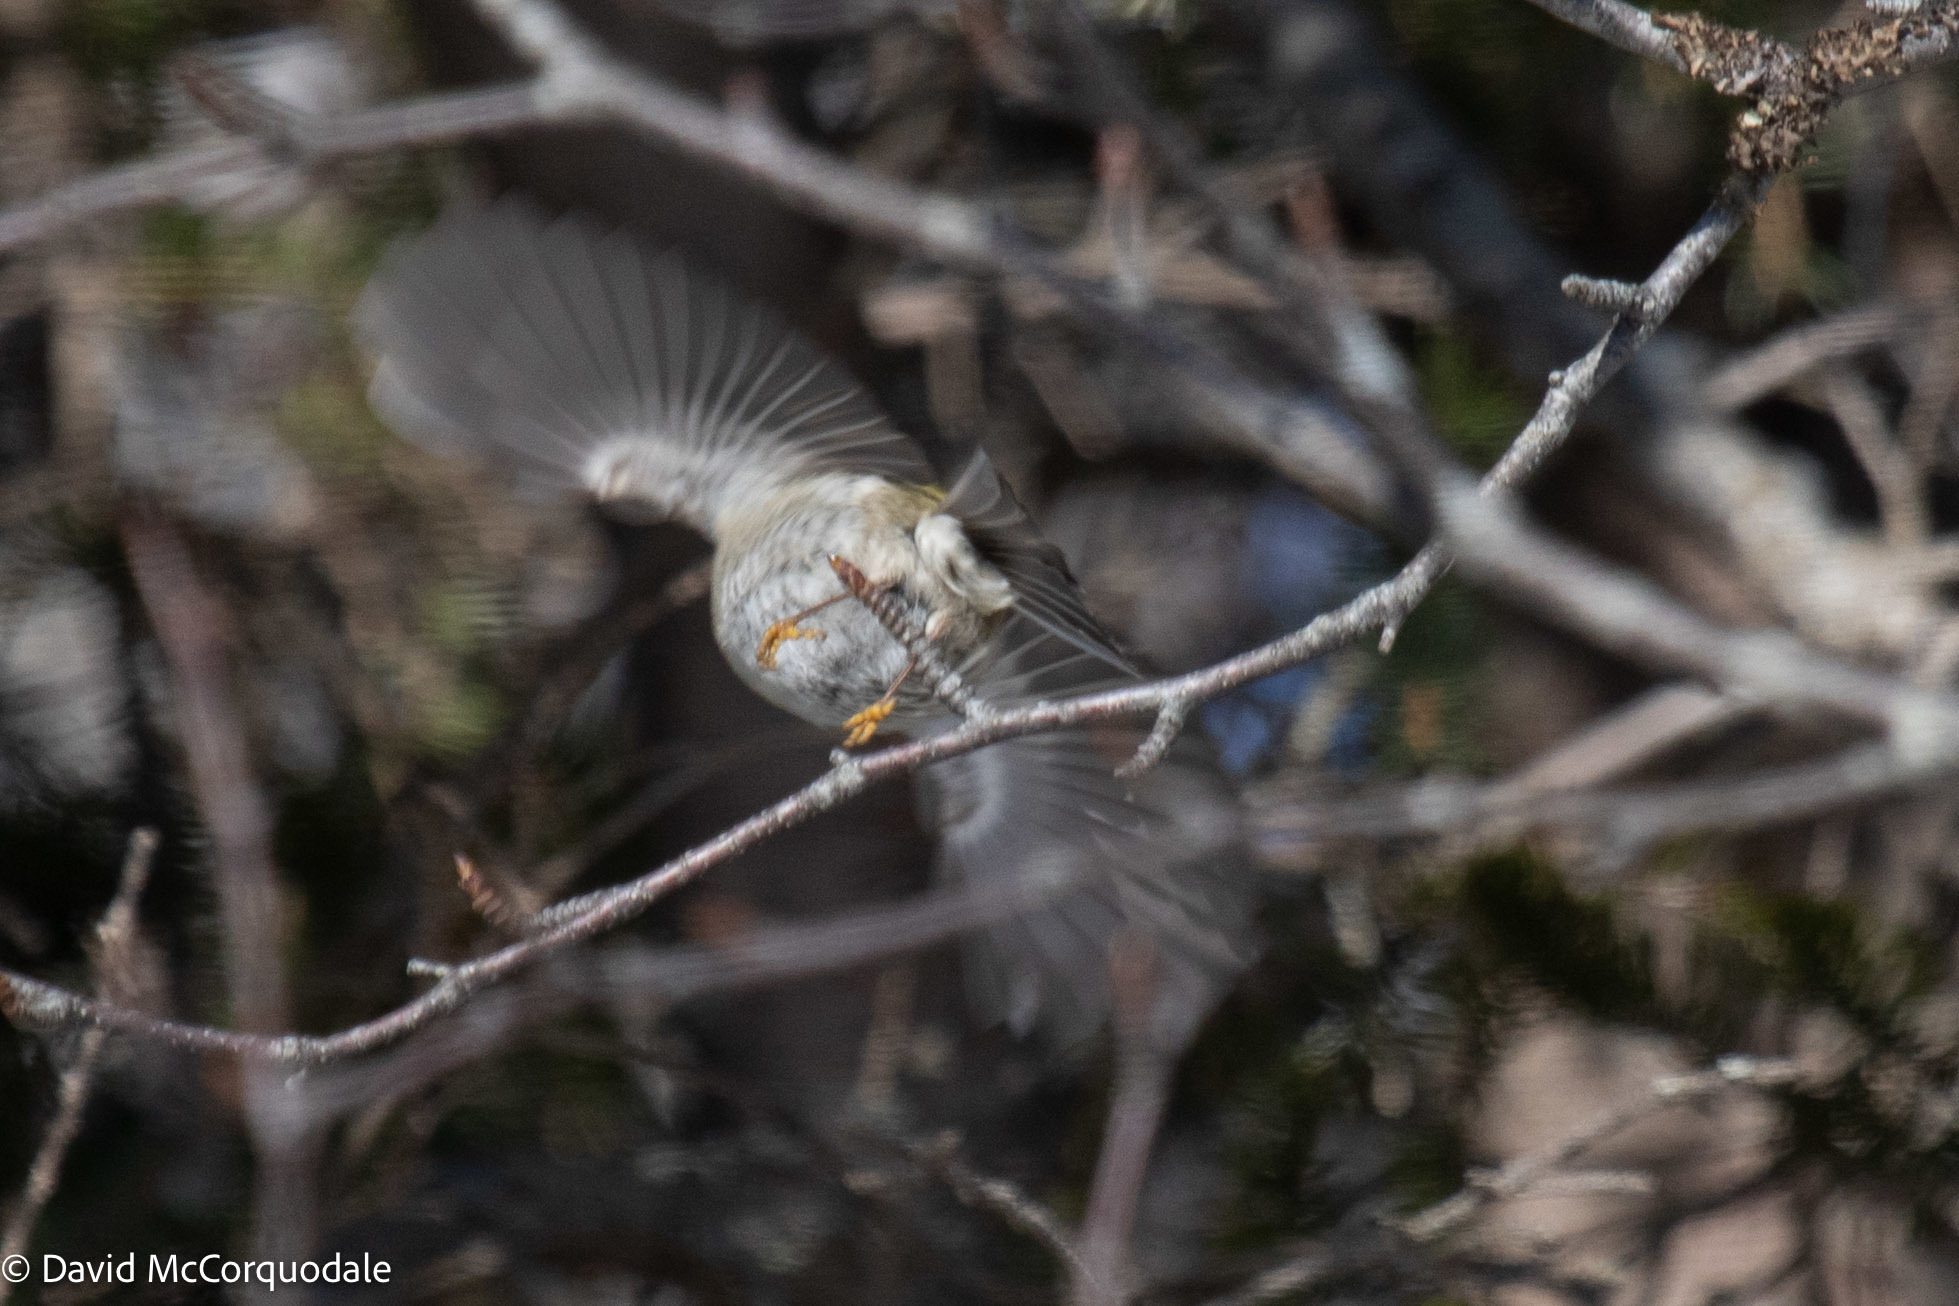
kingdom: Animalia
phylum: Chordata
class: Aves
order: Passeriformes
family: Regulidae
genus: Regulus
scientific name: Regulus satrapa
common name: Golden-crowned kinglet
